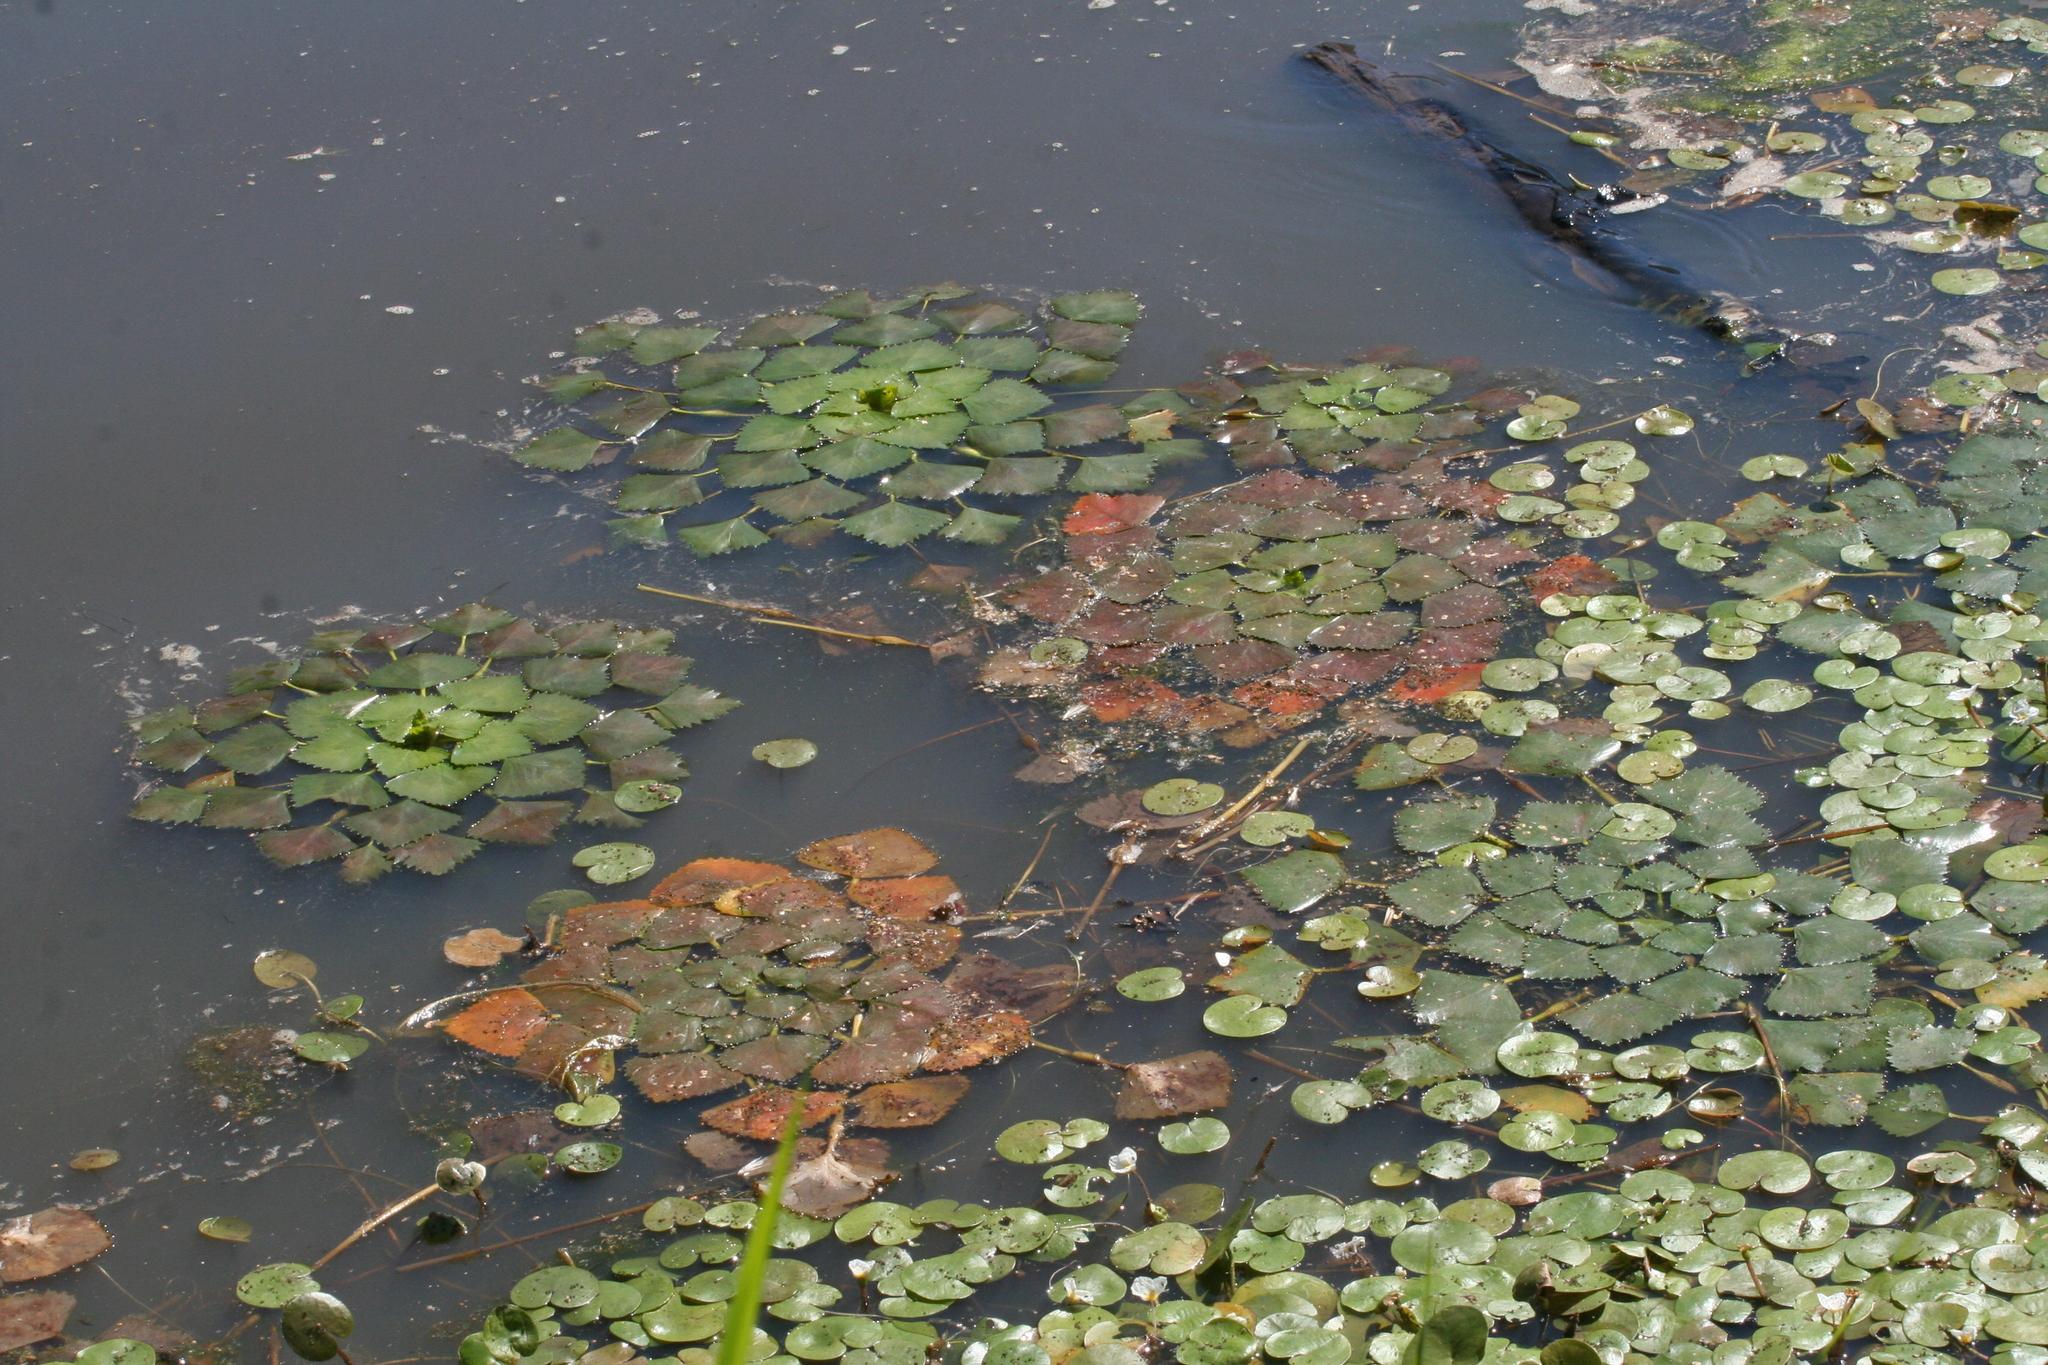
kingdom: Plantae
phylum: Tracheophyta
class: Magnoliopsida
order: Myrtales
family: Lythraceae
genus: Trapa
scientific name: Trapa natans
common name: Water chestnut
